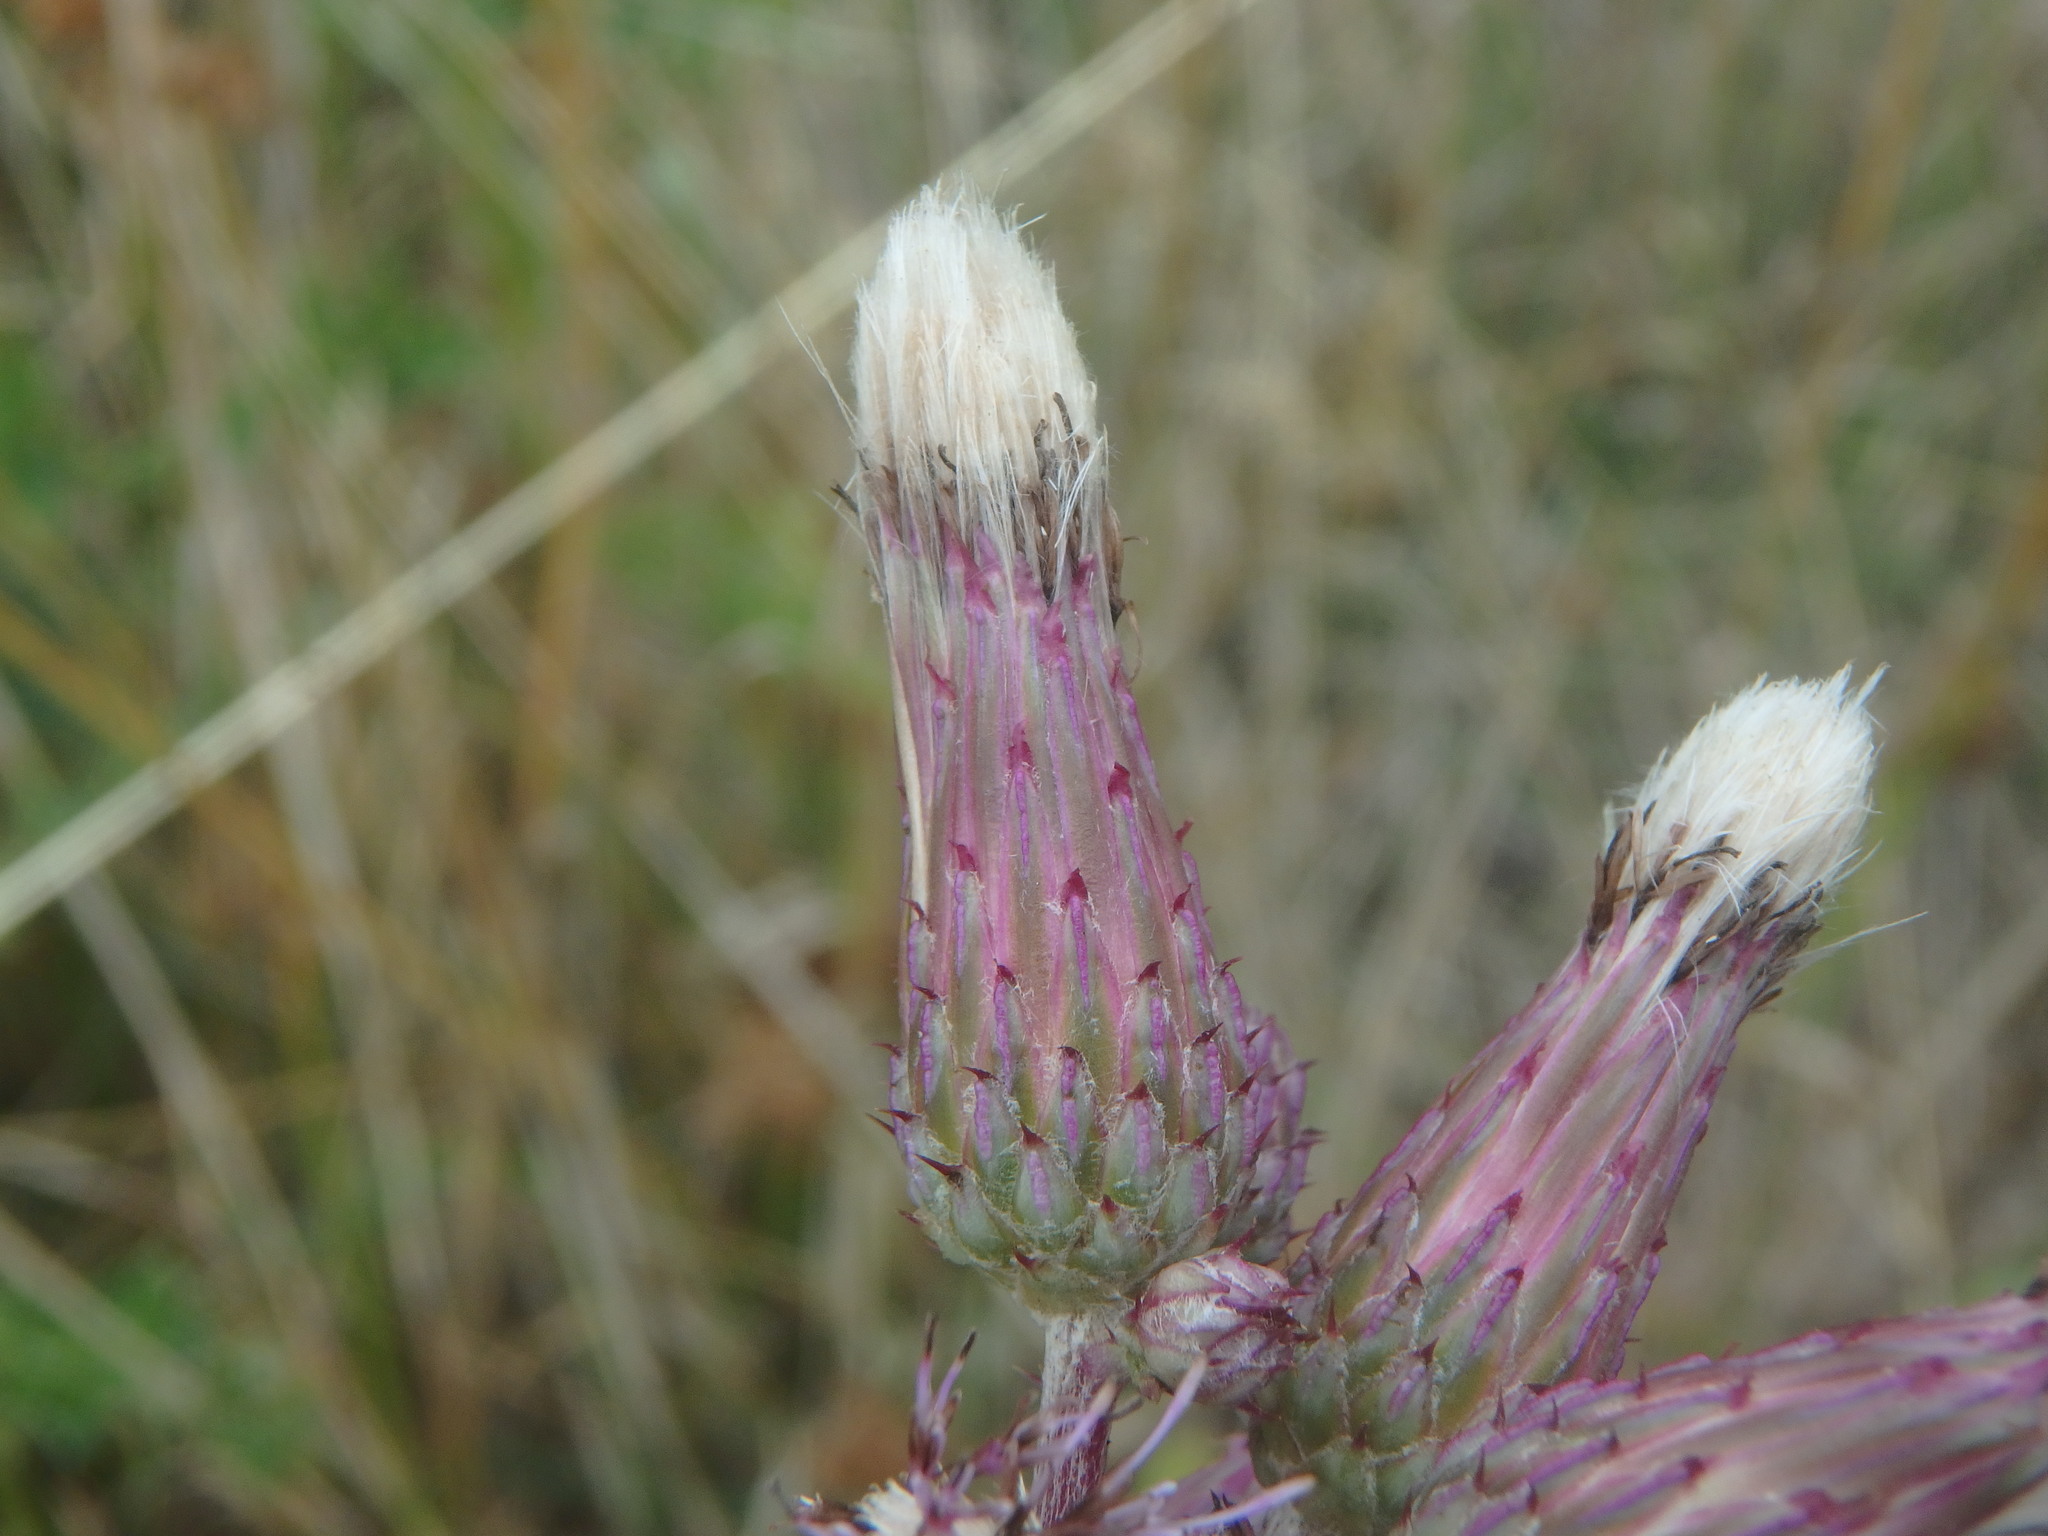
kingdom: Plantae
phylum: Tracheophyta
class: Magnoliopsida
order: Asterales
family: Asteraceae
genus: Cirsium
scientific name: Cirsium arvense
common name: Creeping thistle
